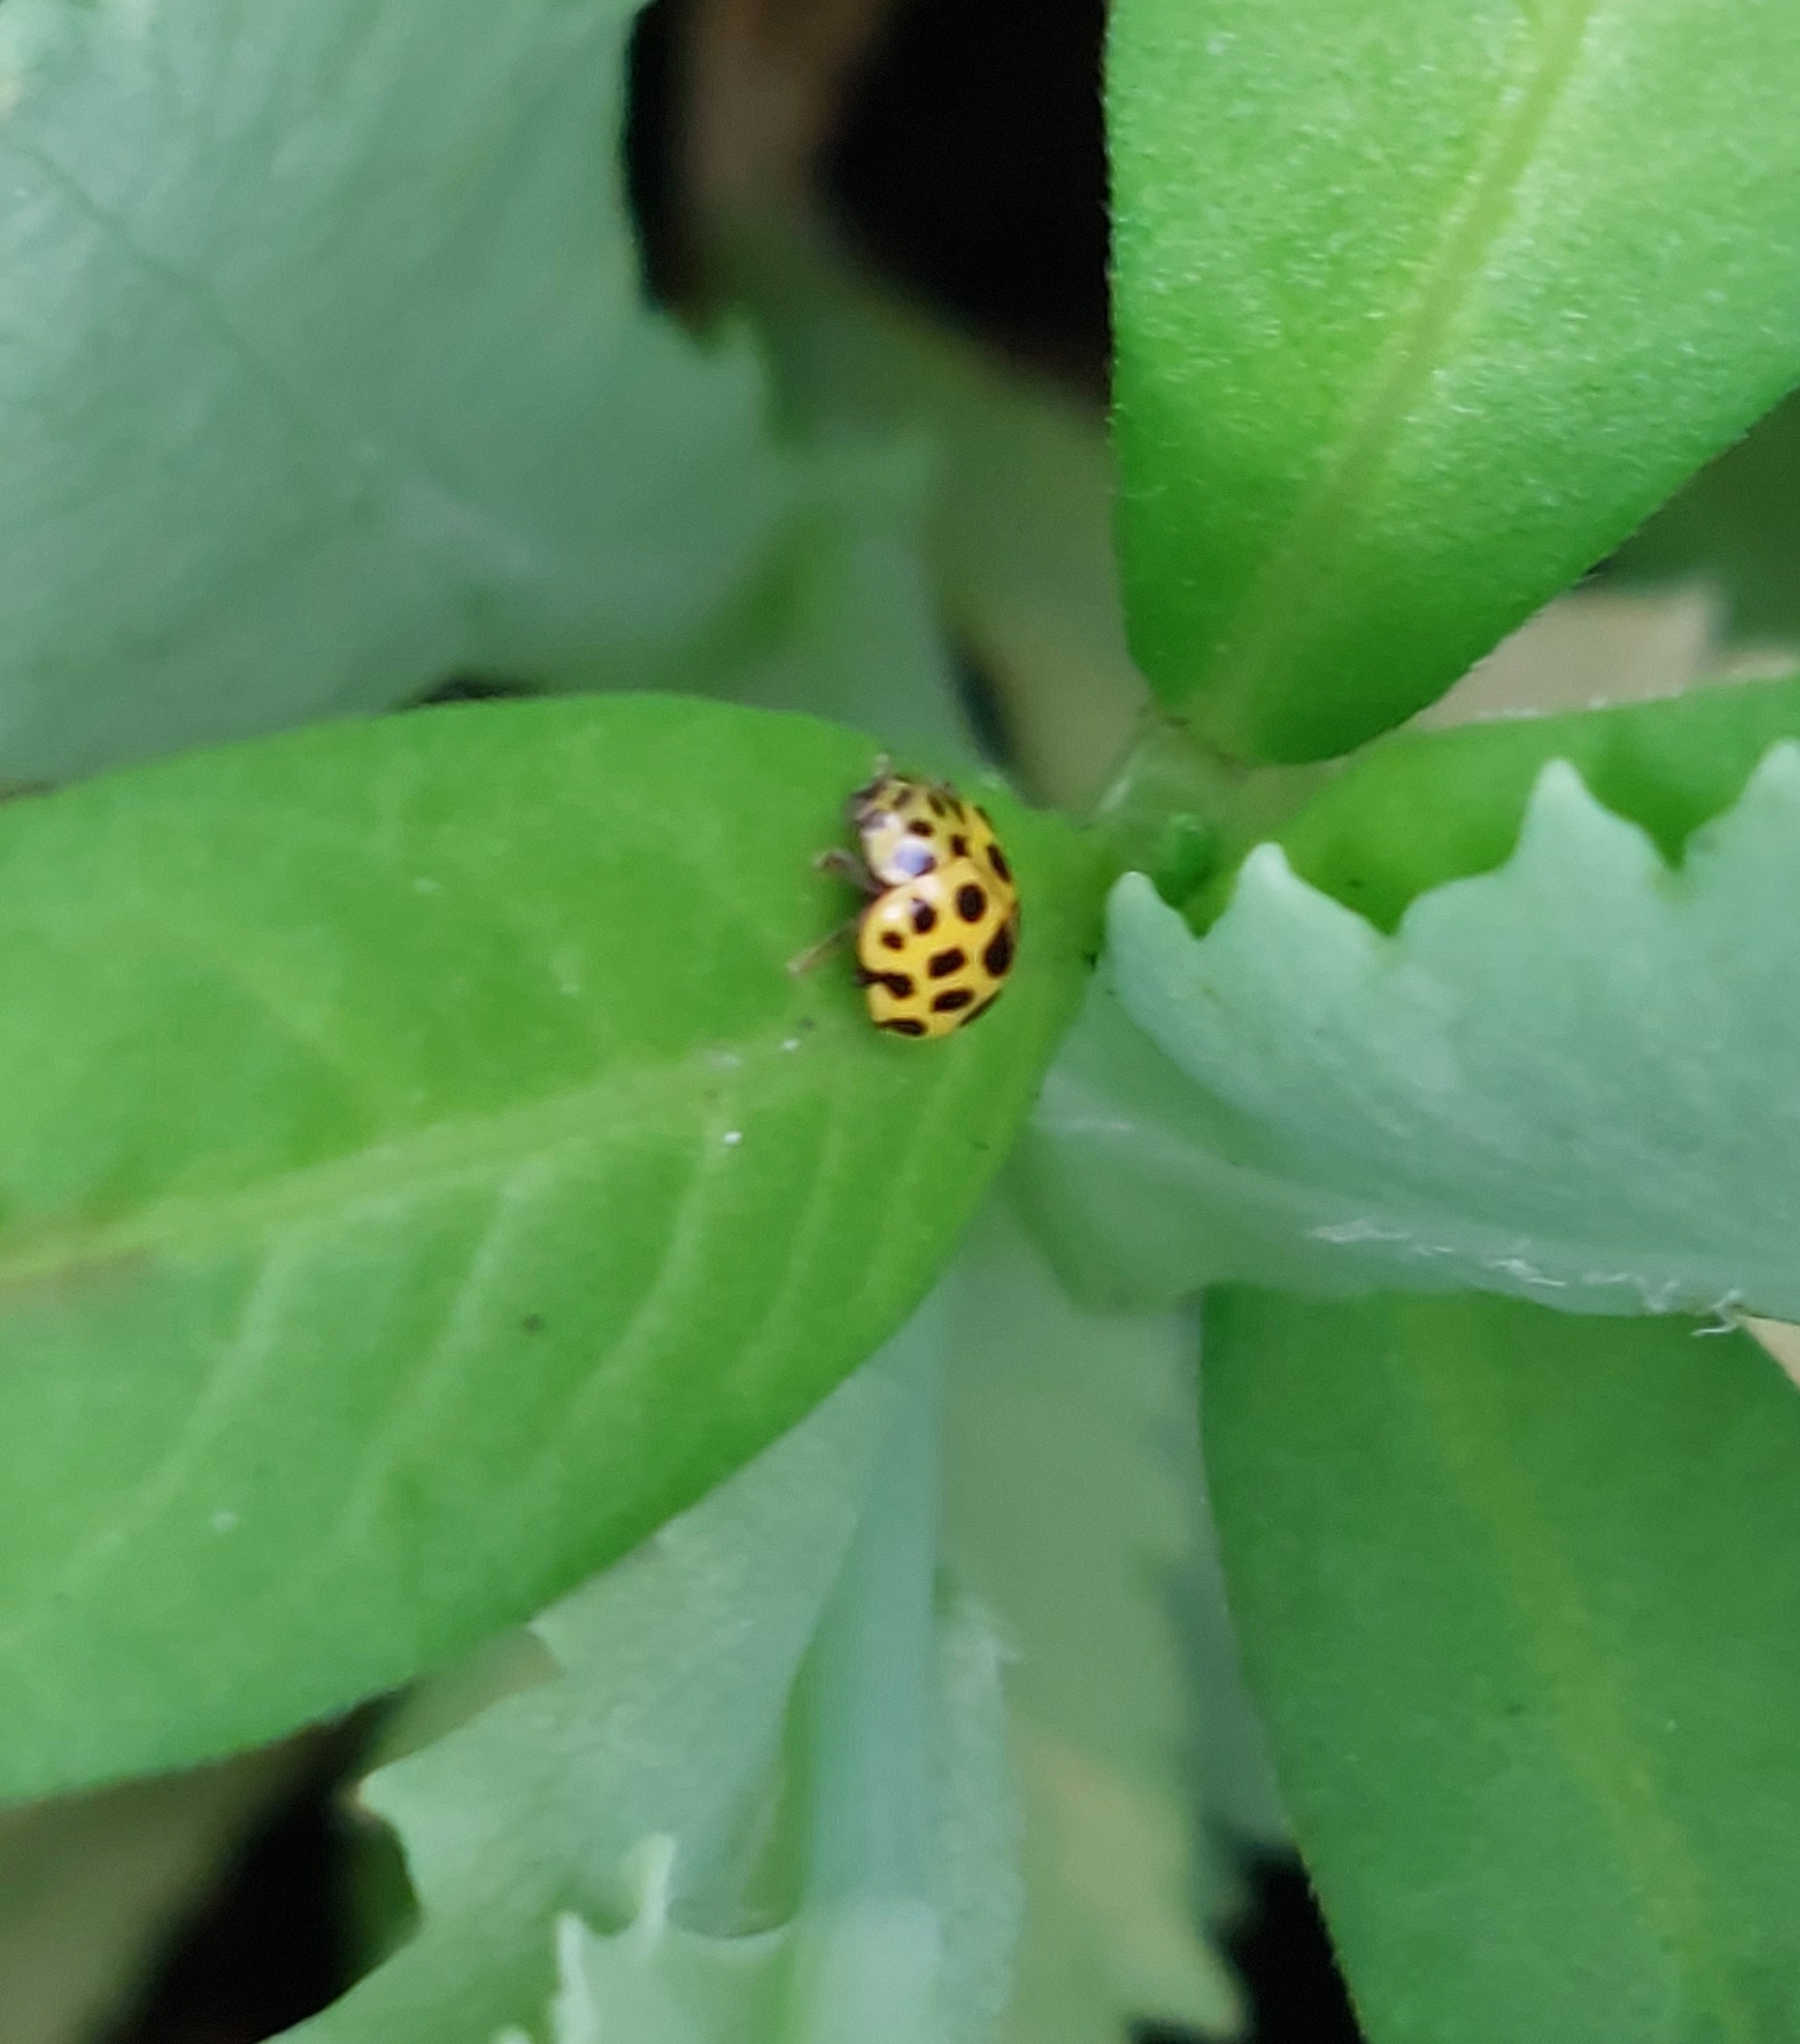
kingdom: Animalia
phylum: Arthropoda
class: Insecta
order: Coleoptera
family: Coccinellidae
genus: Psyllobora
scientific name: Psyllobora vigintiduopunctata
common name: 22-spot ladybird
